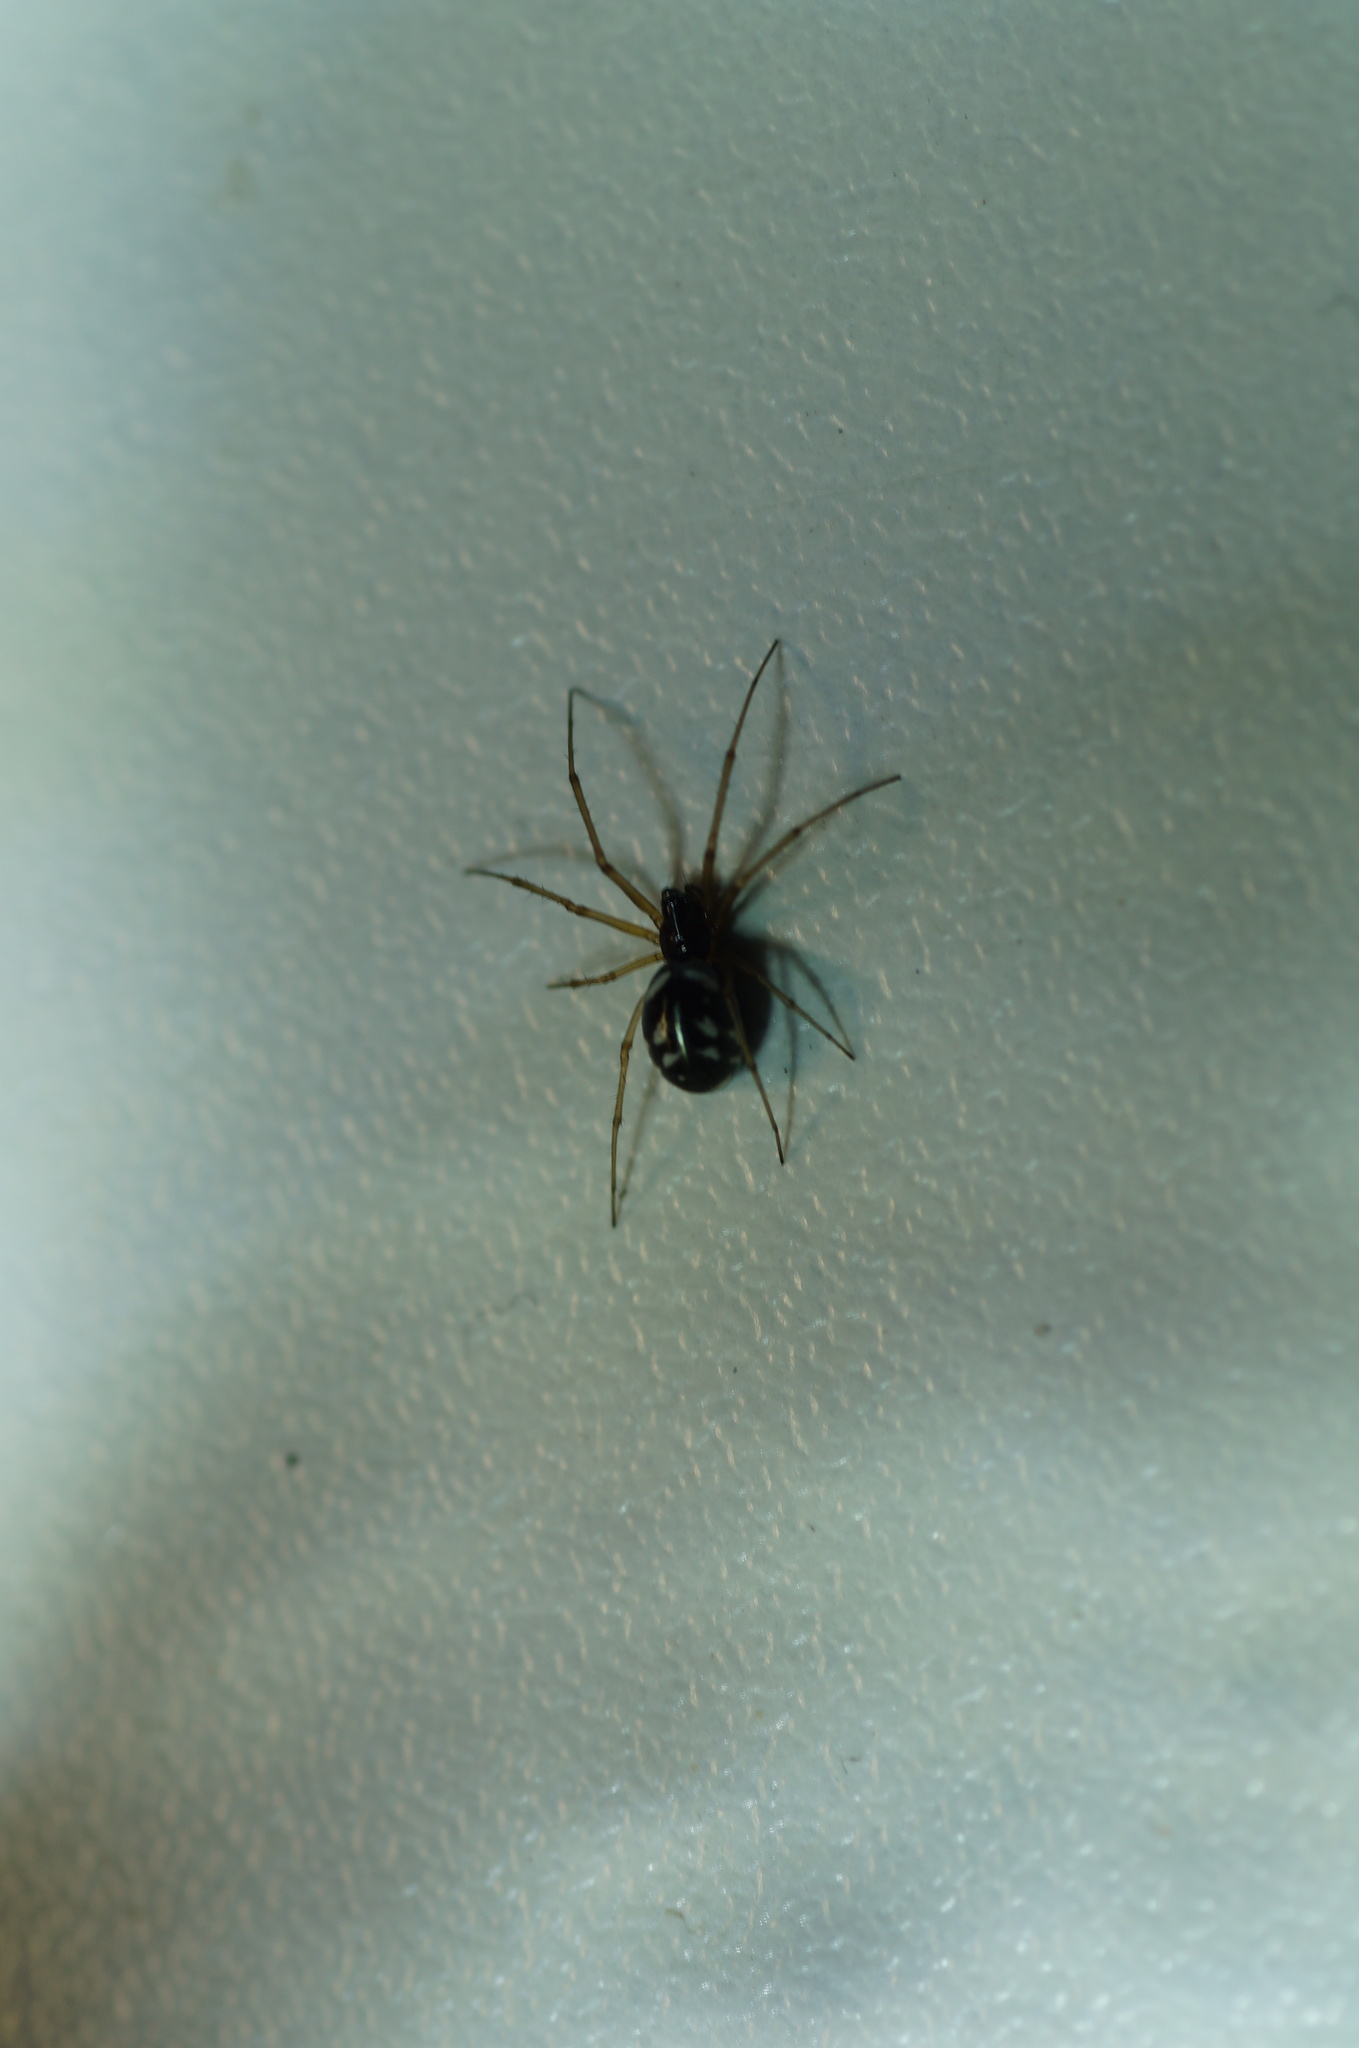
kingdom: Animalia
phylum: Arthropoda
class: Arachnida
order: Araneae
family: Linyphiidae
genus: Microlinyphia
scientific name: Microlinyphia pusilla
